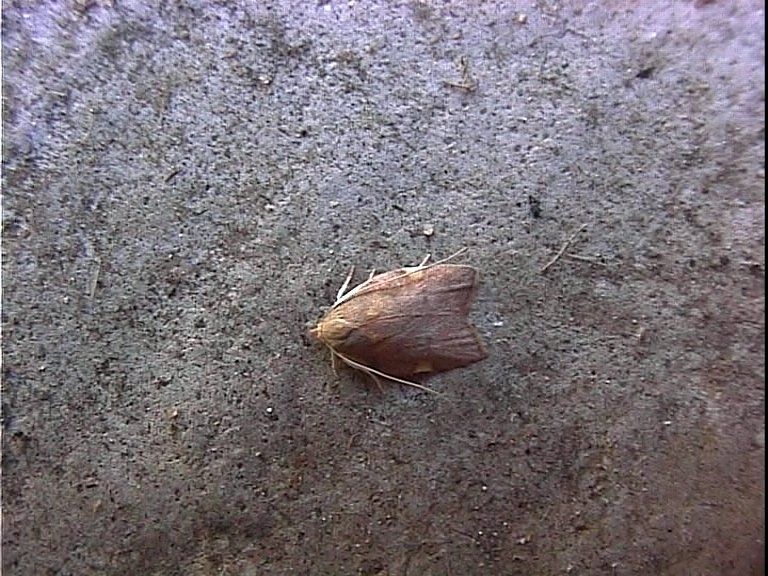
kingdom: Animalia
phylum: Arthropoda
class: Insecta
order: Lepidoptera
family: Peleopodidae
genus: Carcina
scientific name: Carcina quercana
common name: Moth
